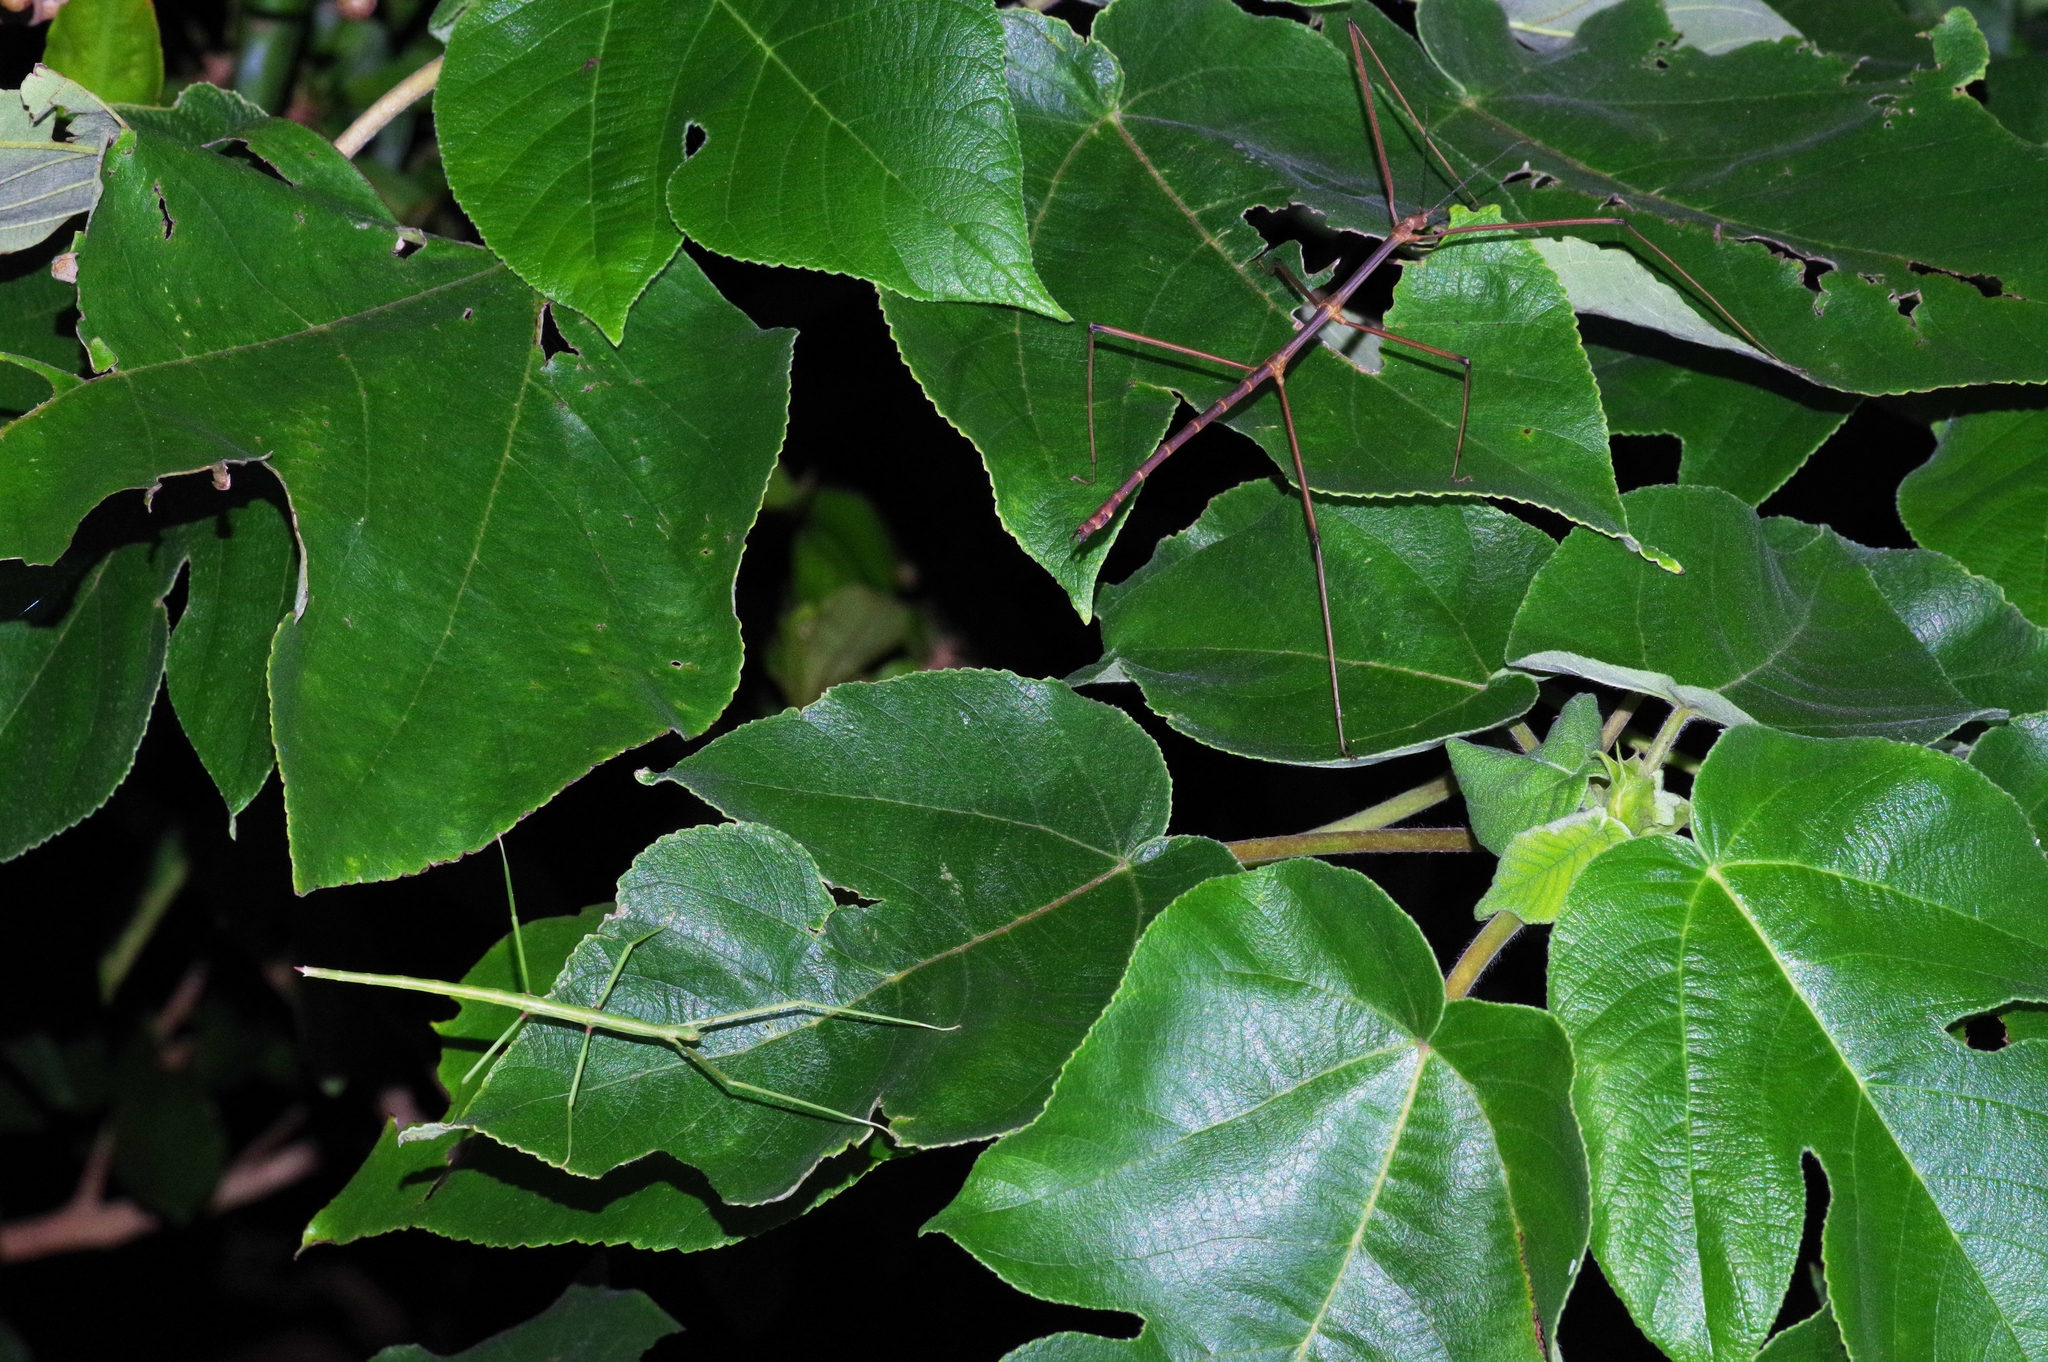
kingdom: Animalia
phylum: Arthropoda
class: Insecta
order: Phasmida
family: Phasmatidae
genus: Entoria
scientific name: Entoria miyakoensis
